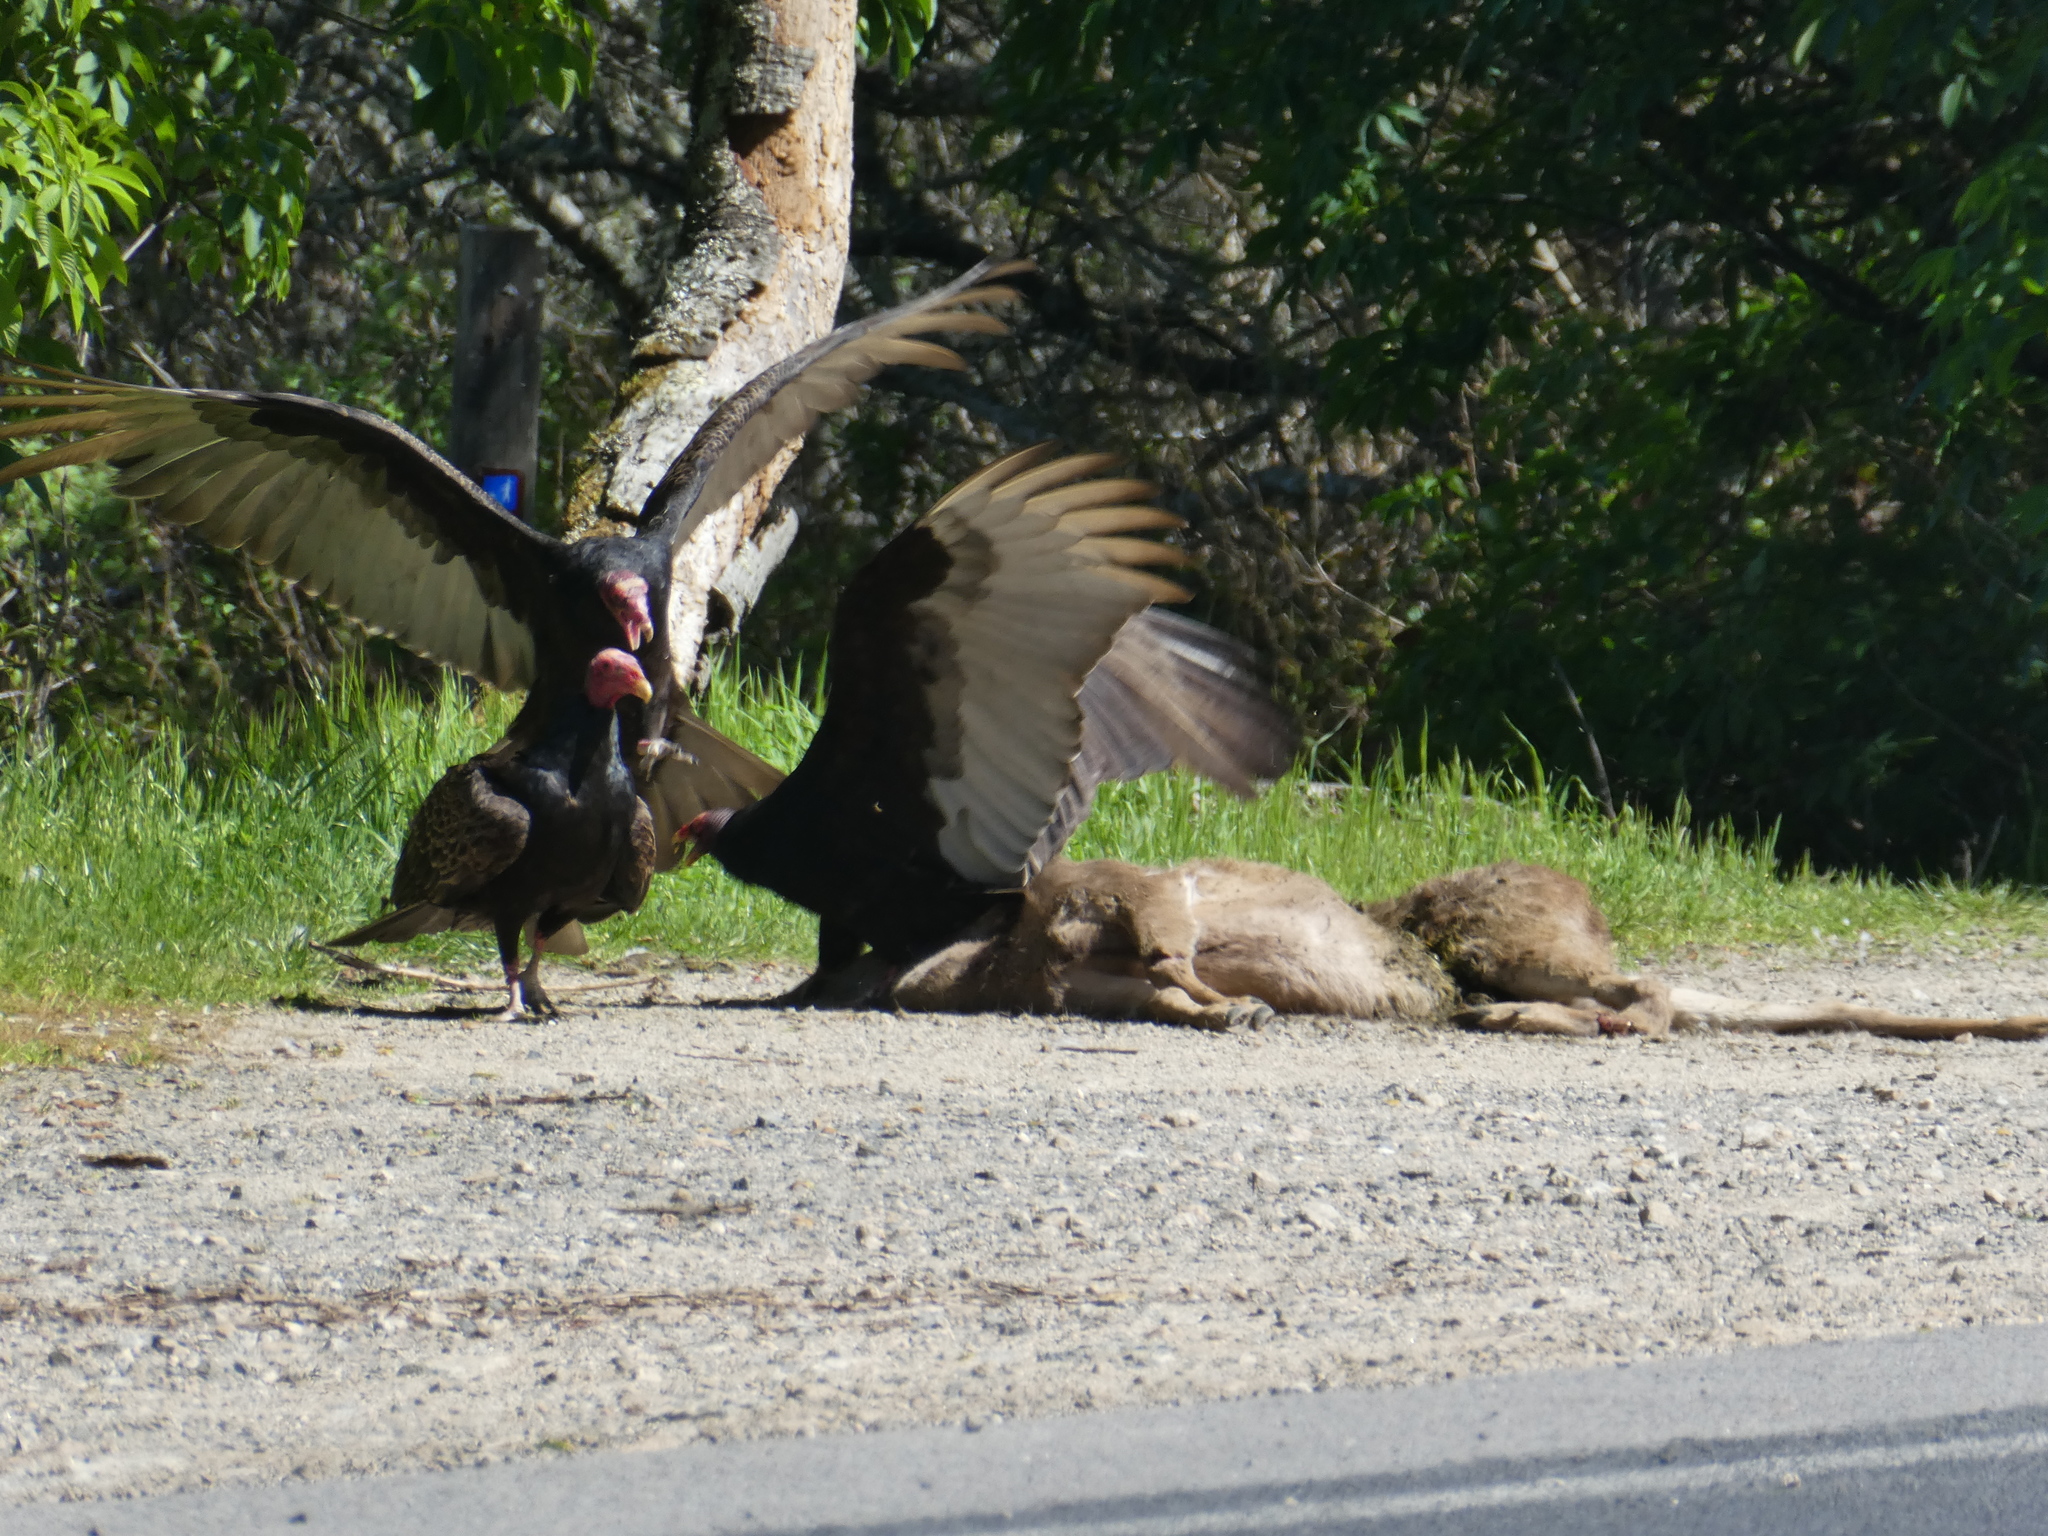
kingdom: Animalia
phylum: Chordata
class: Aves
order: Accipitriformes
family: Cathartidae
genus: Cathartes
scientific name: Cathartes aura
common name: Turkey vulture
